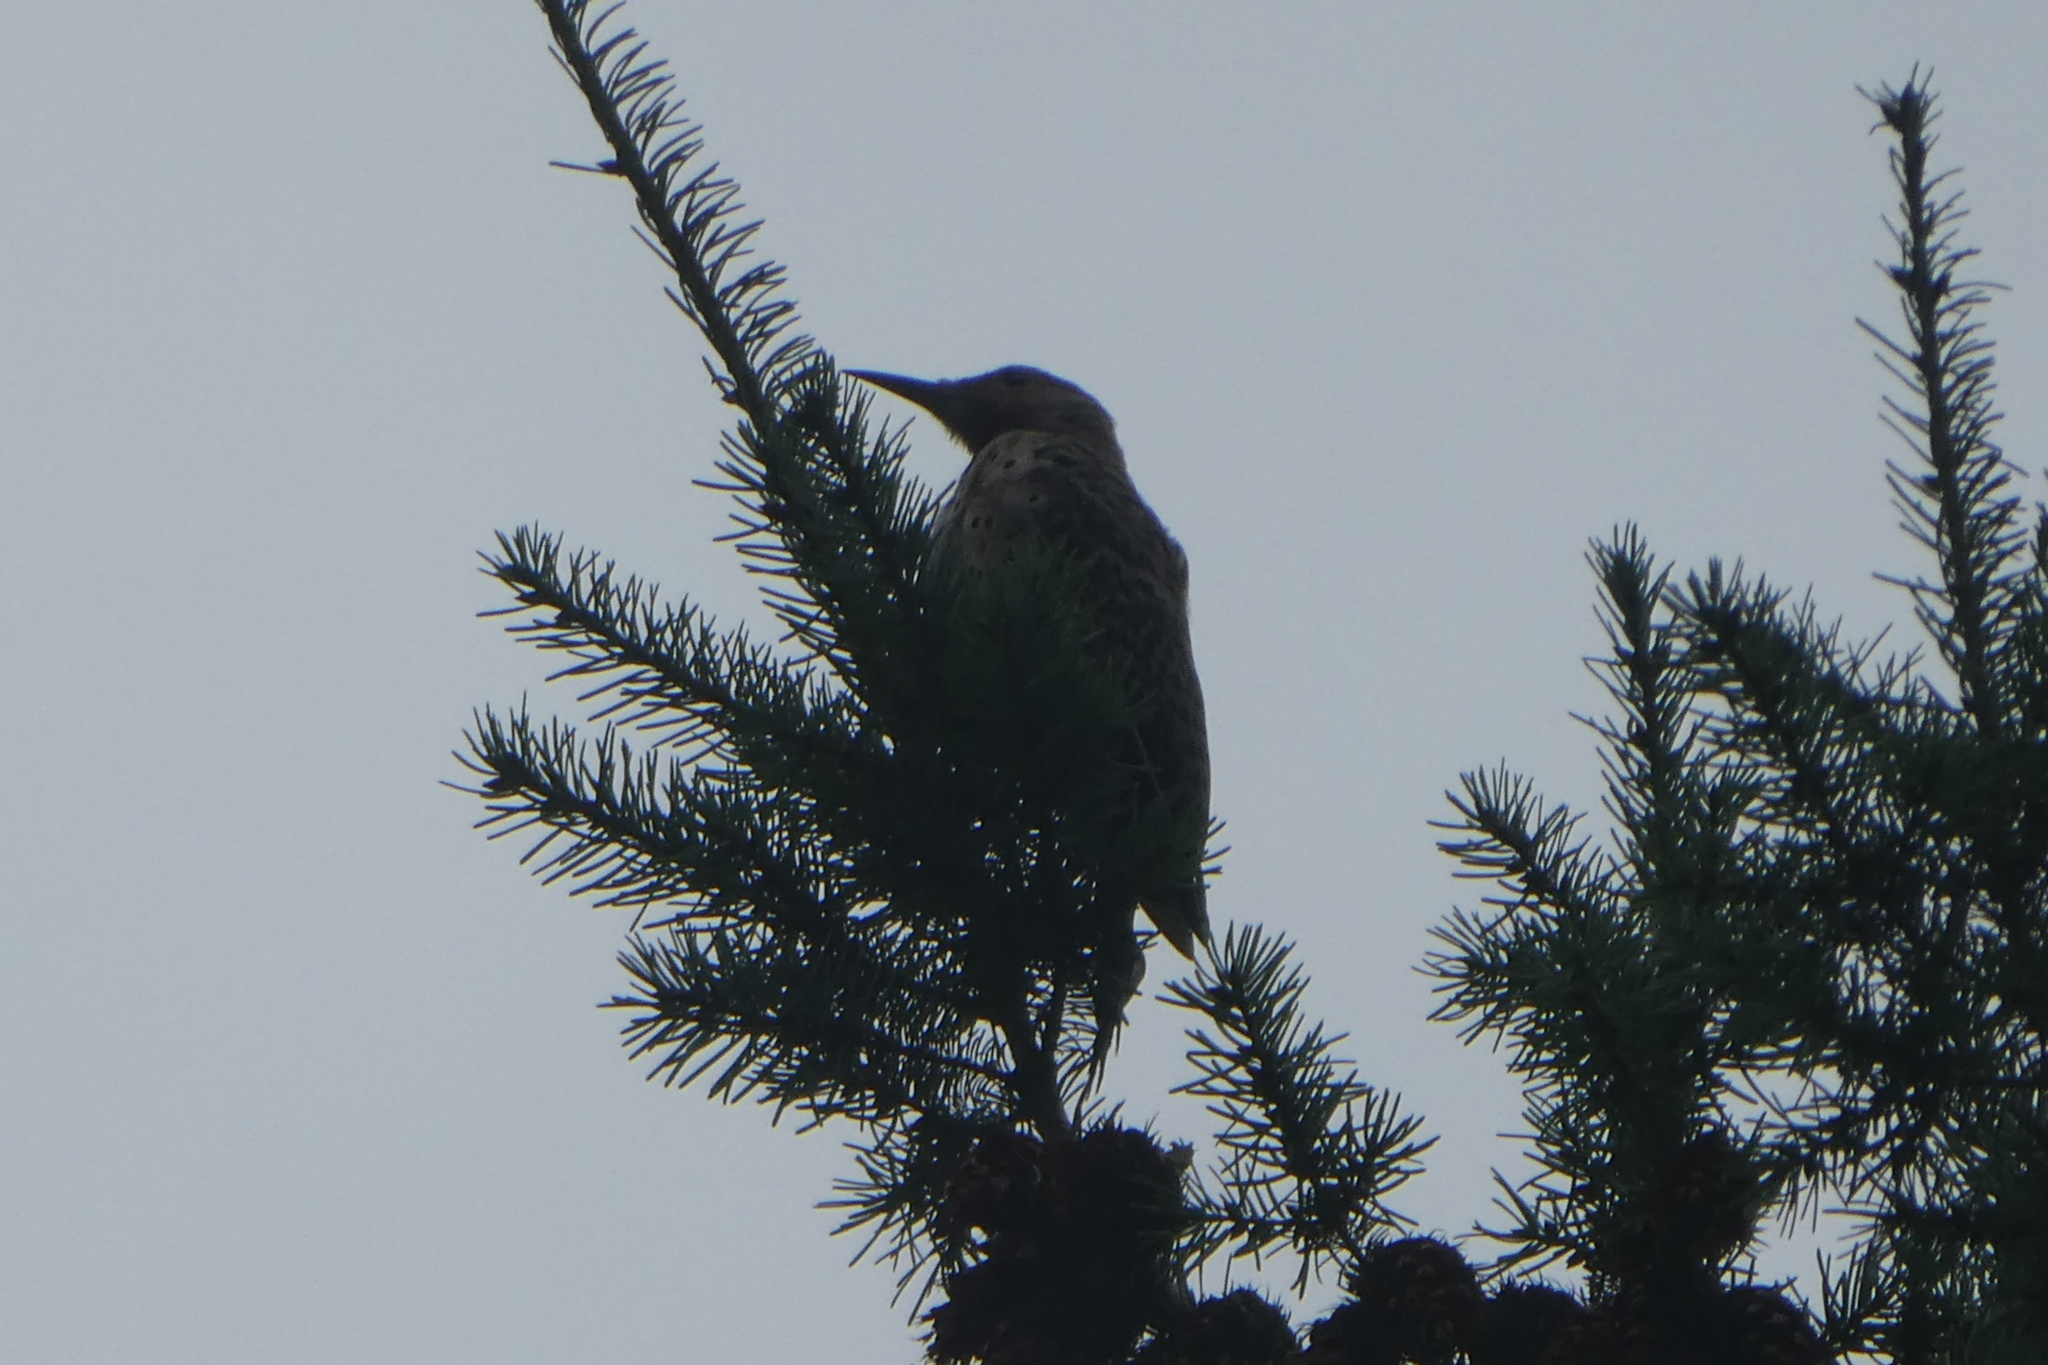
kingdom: Animalia
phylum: Chordata
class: Aves
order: Piciformes
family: Picidae
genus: Colaptes
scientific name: Colaptes auratus
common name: Northern flicker
